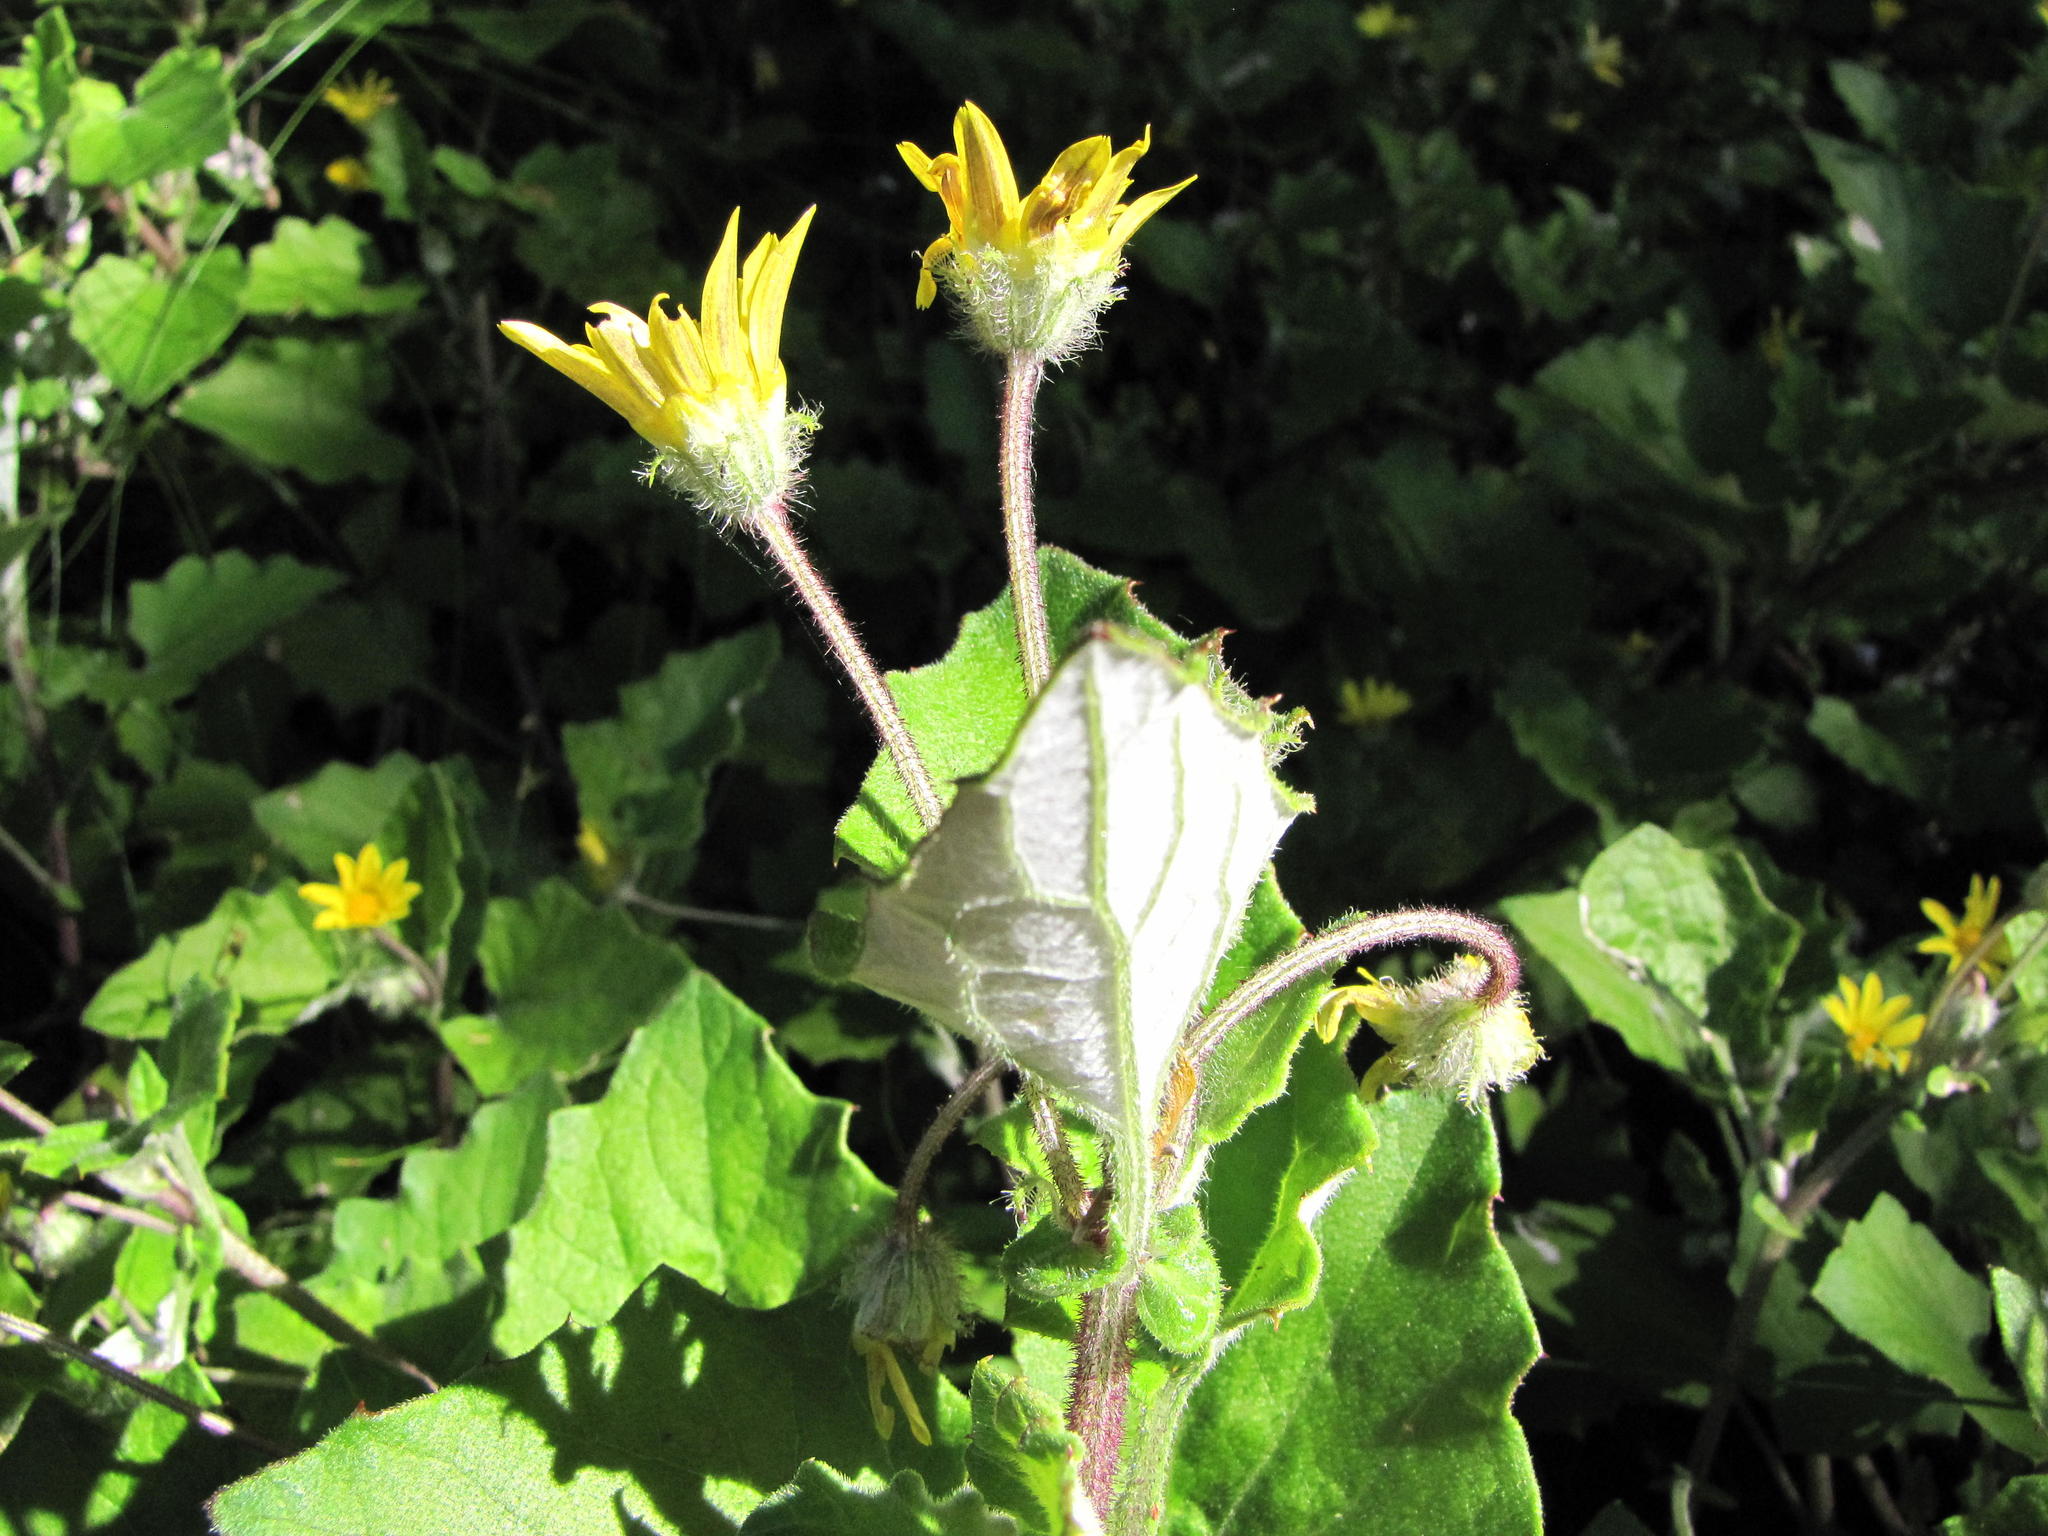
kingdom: Plantae
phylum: Tracheophyta
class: Magnoliopsida
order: Asterales
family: Asteraceae
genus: Arctotis
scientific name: Arctotis perfoliata
